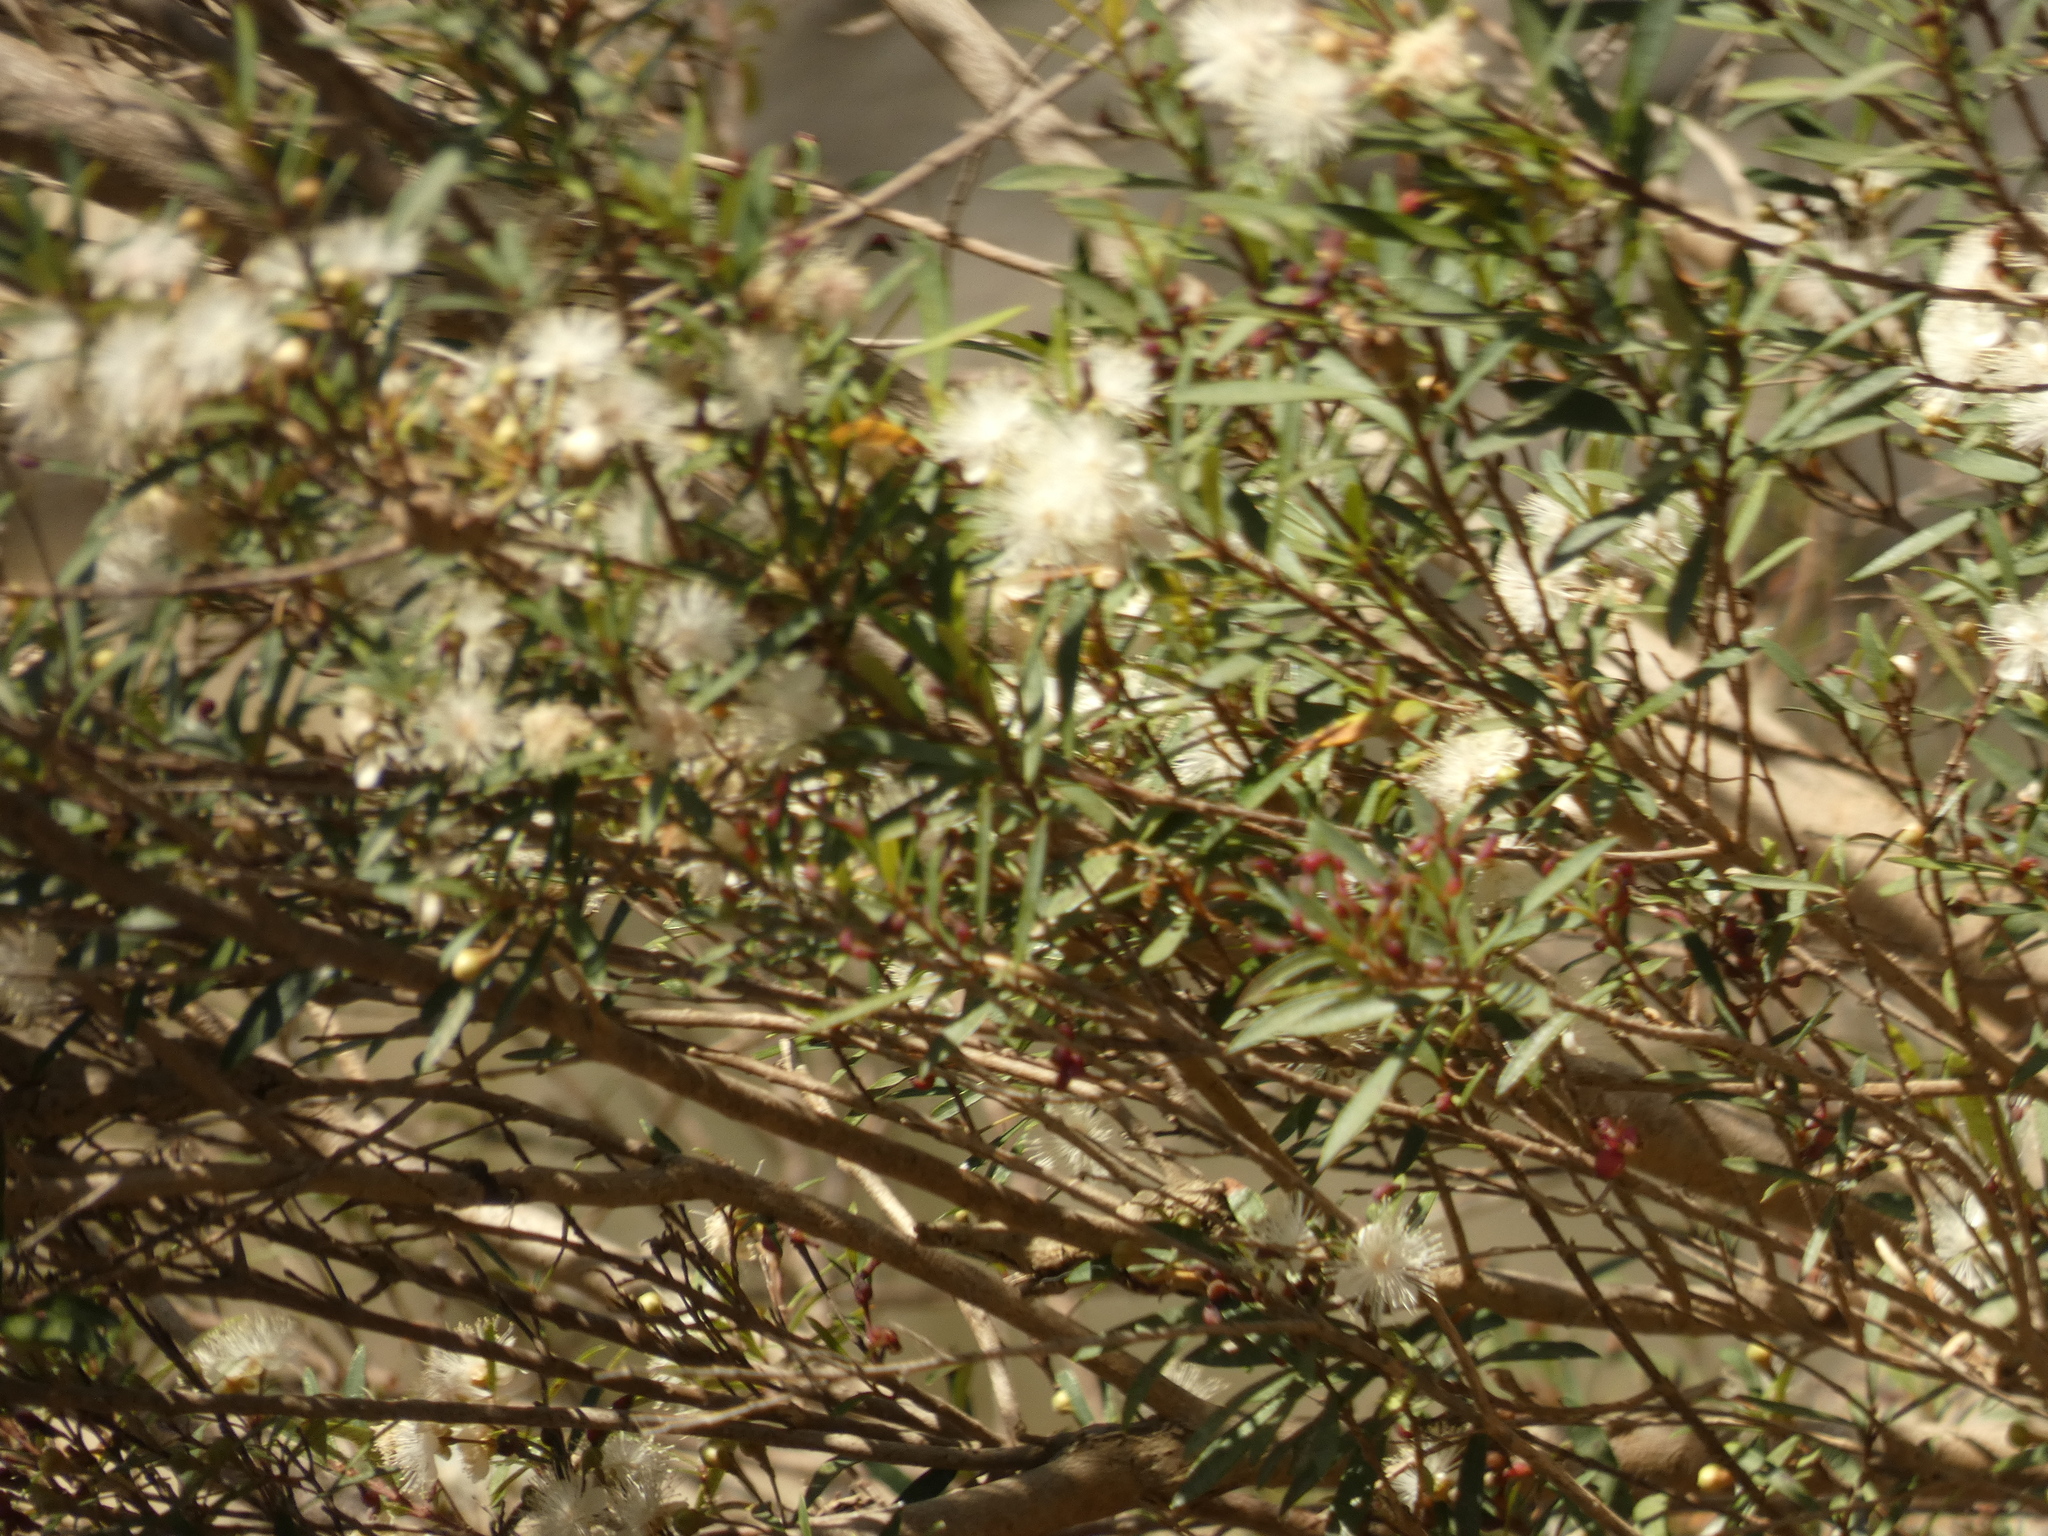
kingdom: Plantae
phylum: Tracheophyta
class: Magnoliopsida
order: Myrtales
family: Myrtaceae
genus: Myrceugenia
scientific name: Myrceugenia lanceolata
